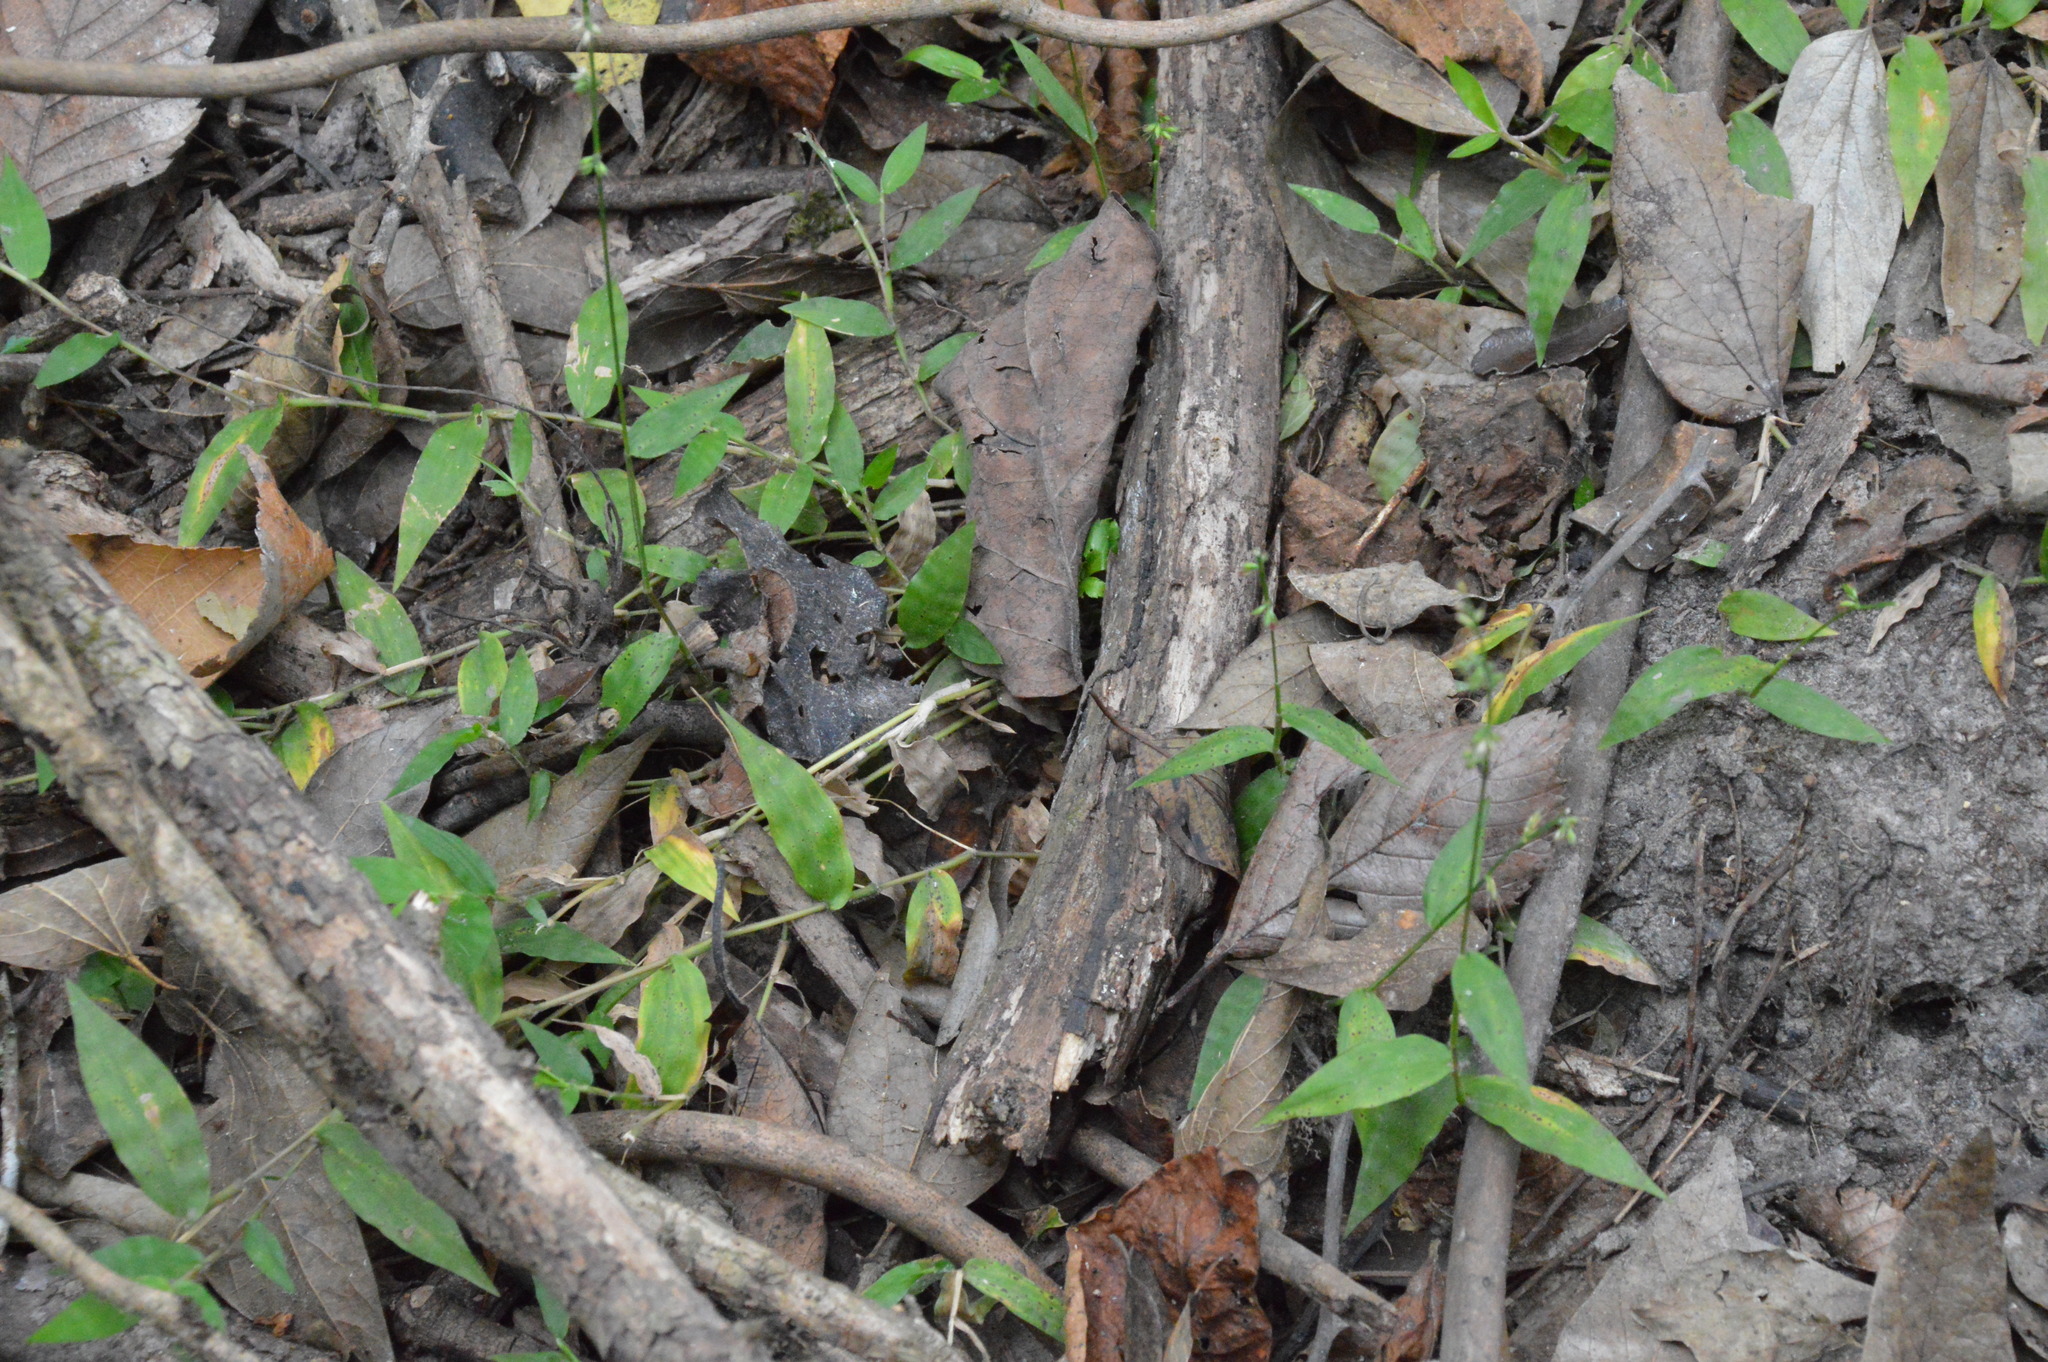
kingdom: Plantae
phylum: Tracheophyta
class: Liliopsida
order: Poales
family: Poaceae
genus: Oplismenus
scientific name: Oplismenus hirtellus
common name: Basketgrass
